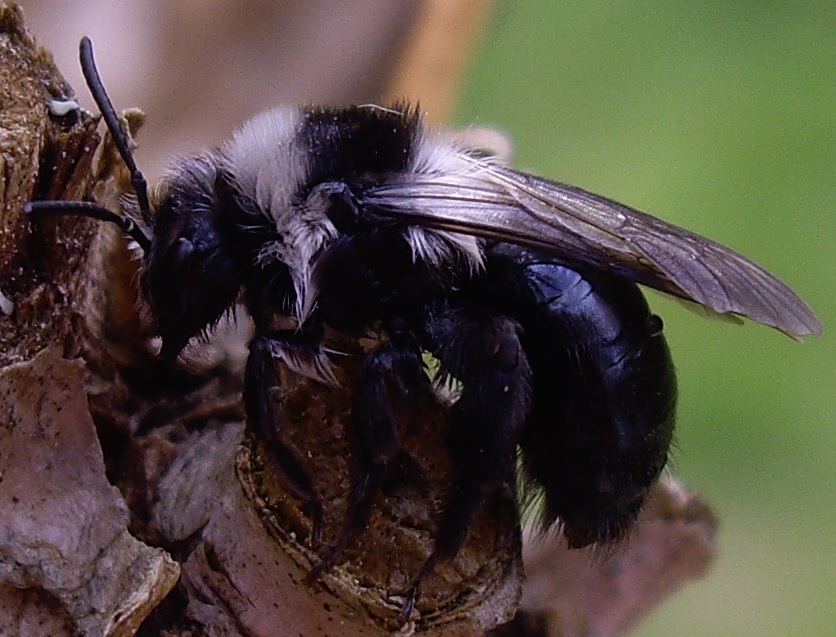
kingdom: Animalia
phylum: Arthropoda
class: Insecta
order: Hymenoptera
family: Andrenidae
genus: Andrena
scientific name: Andrena cineraria
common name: Ashy mining bee
